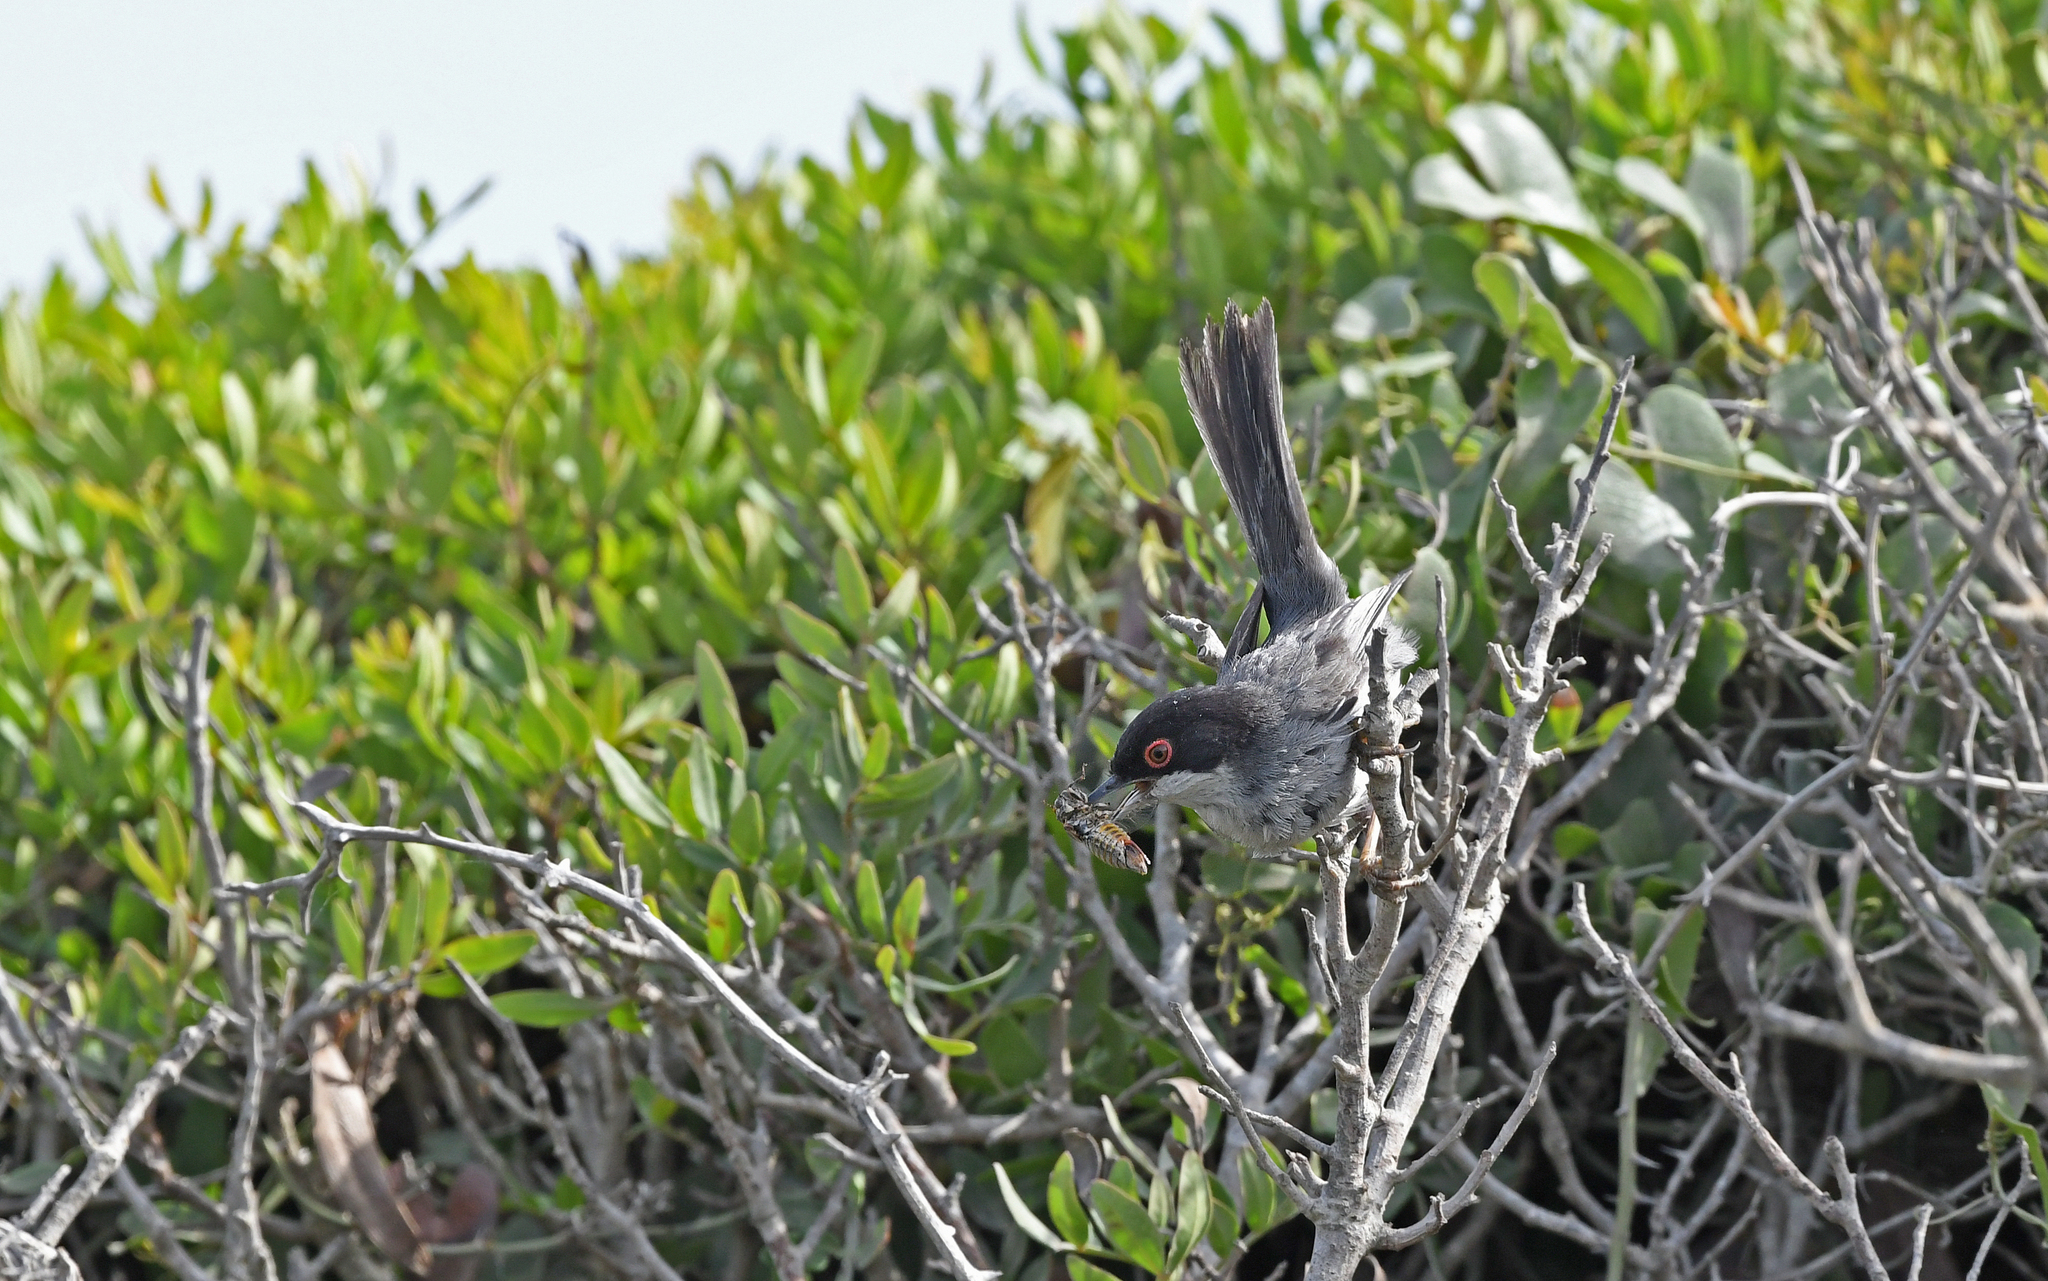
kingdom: Animalia
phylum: Chordata
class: Aves
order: Passeriformes
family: Sylviidae
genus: Curruca
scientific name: Curruca melanocephala
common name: Sardinian warbler
